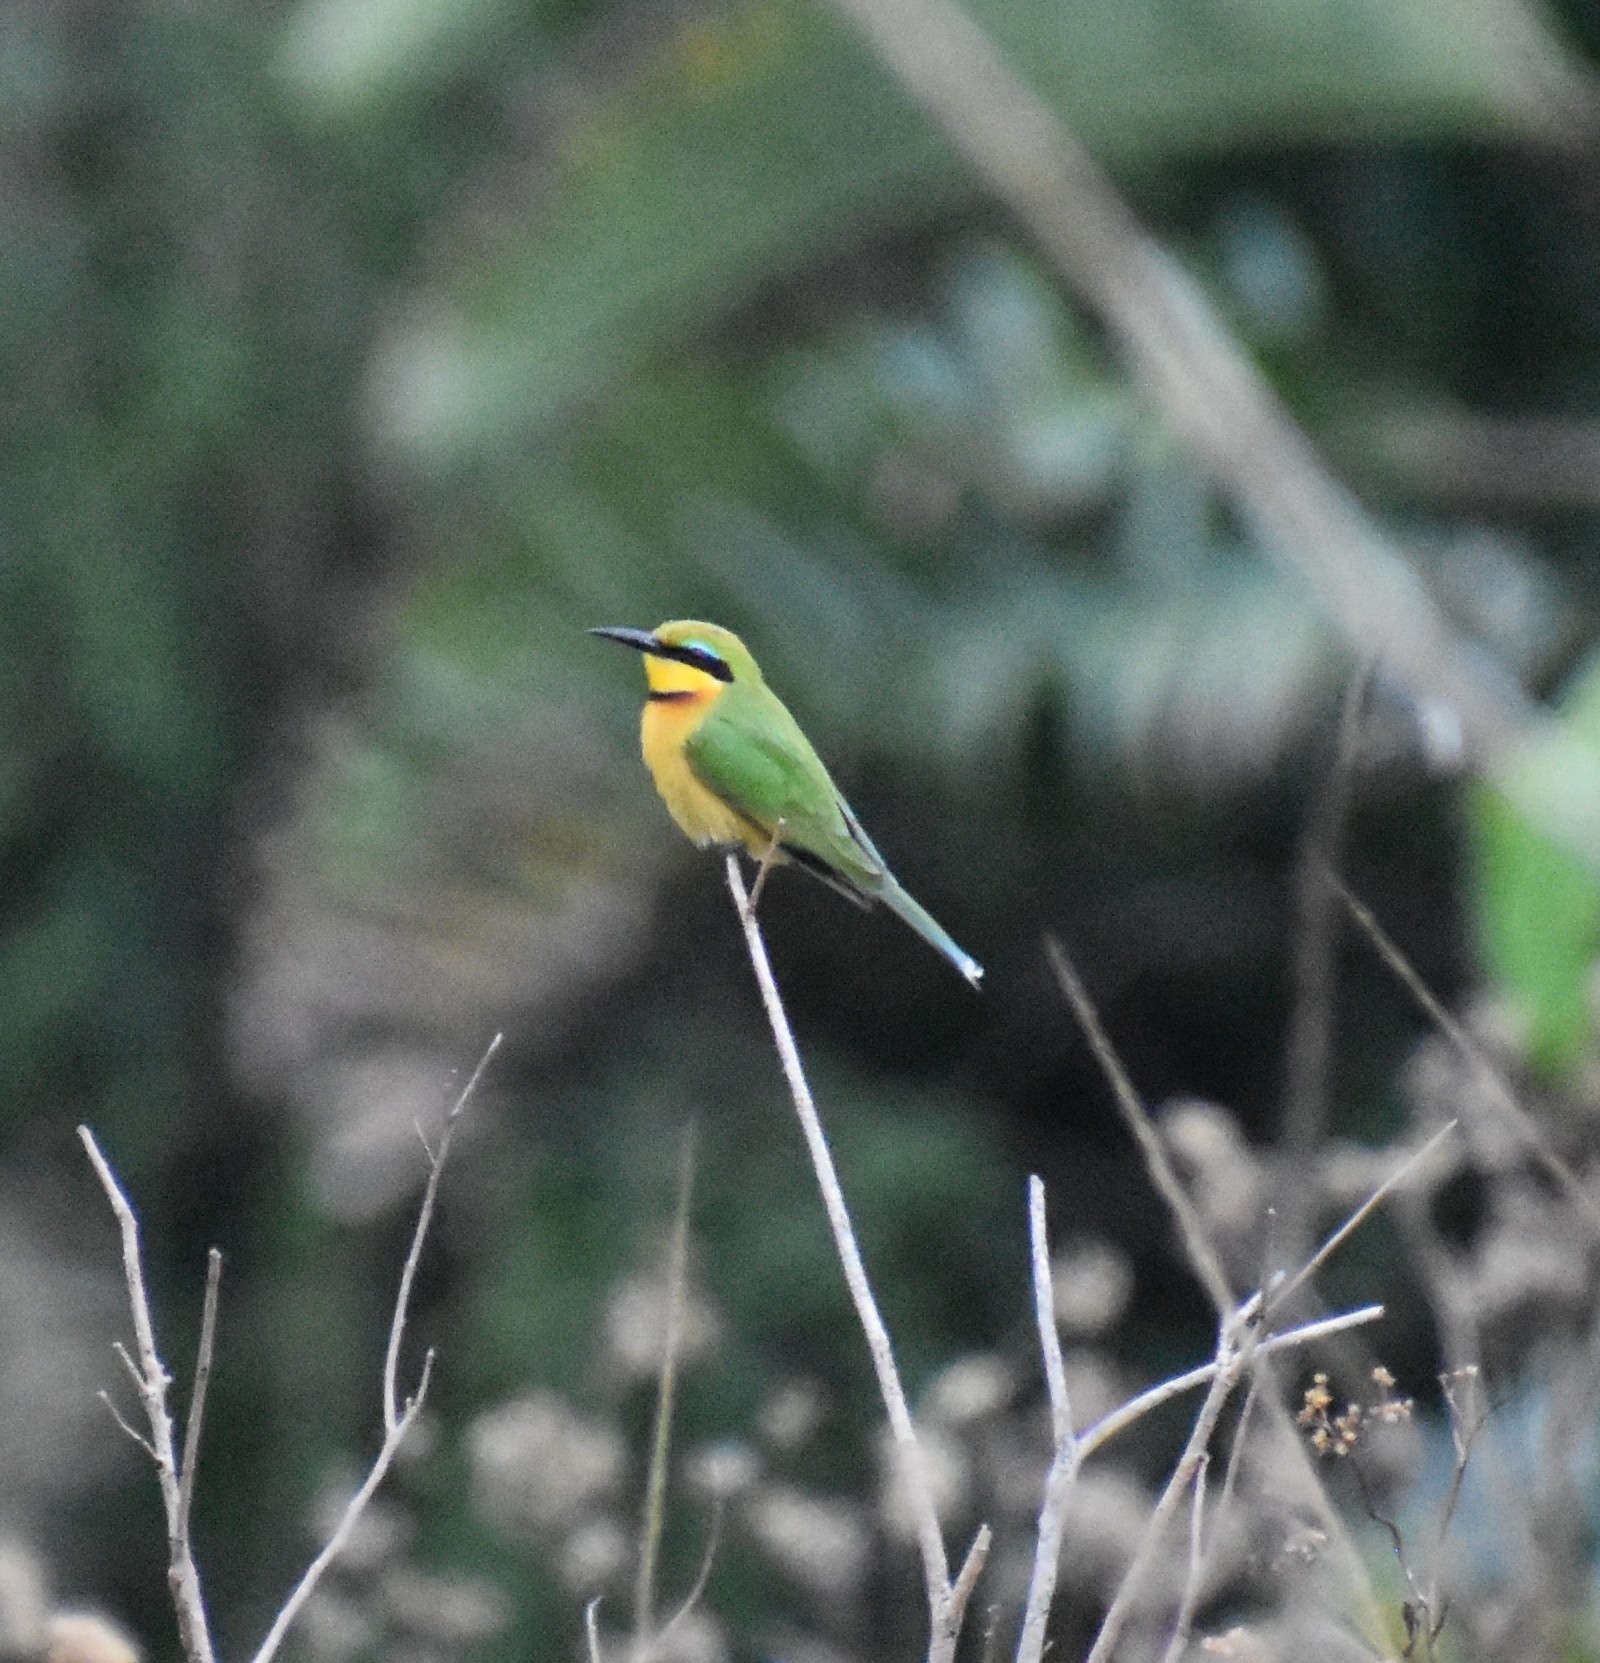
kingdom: Animalia
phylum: Chordata
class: Aves
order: Coraciiformes
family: Meropidae
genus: Merops
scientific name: Merops pusillus
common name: Little bee-eater
